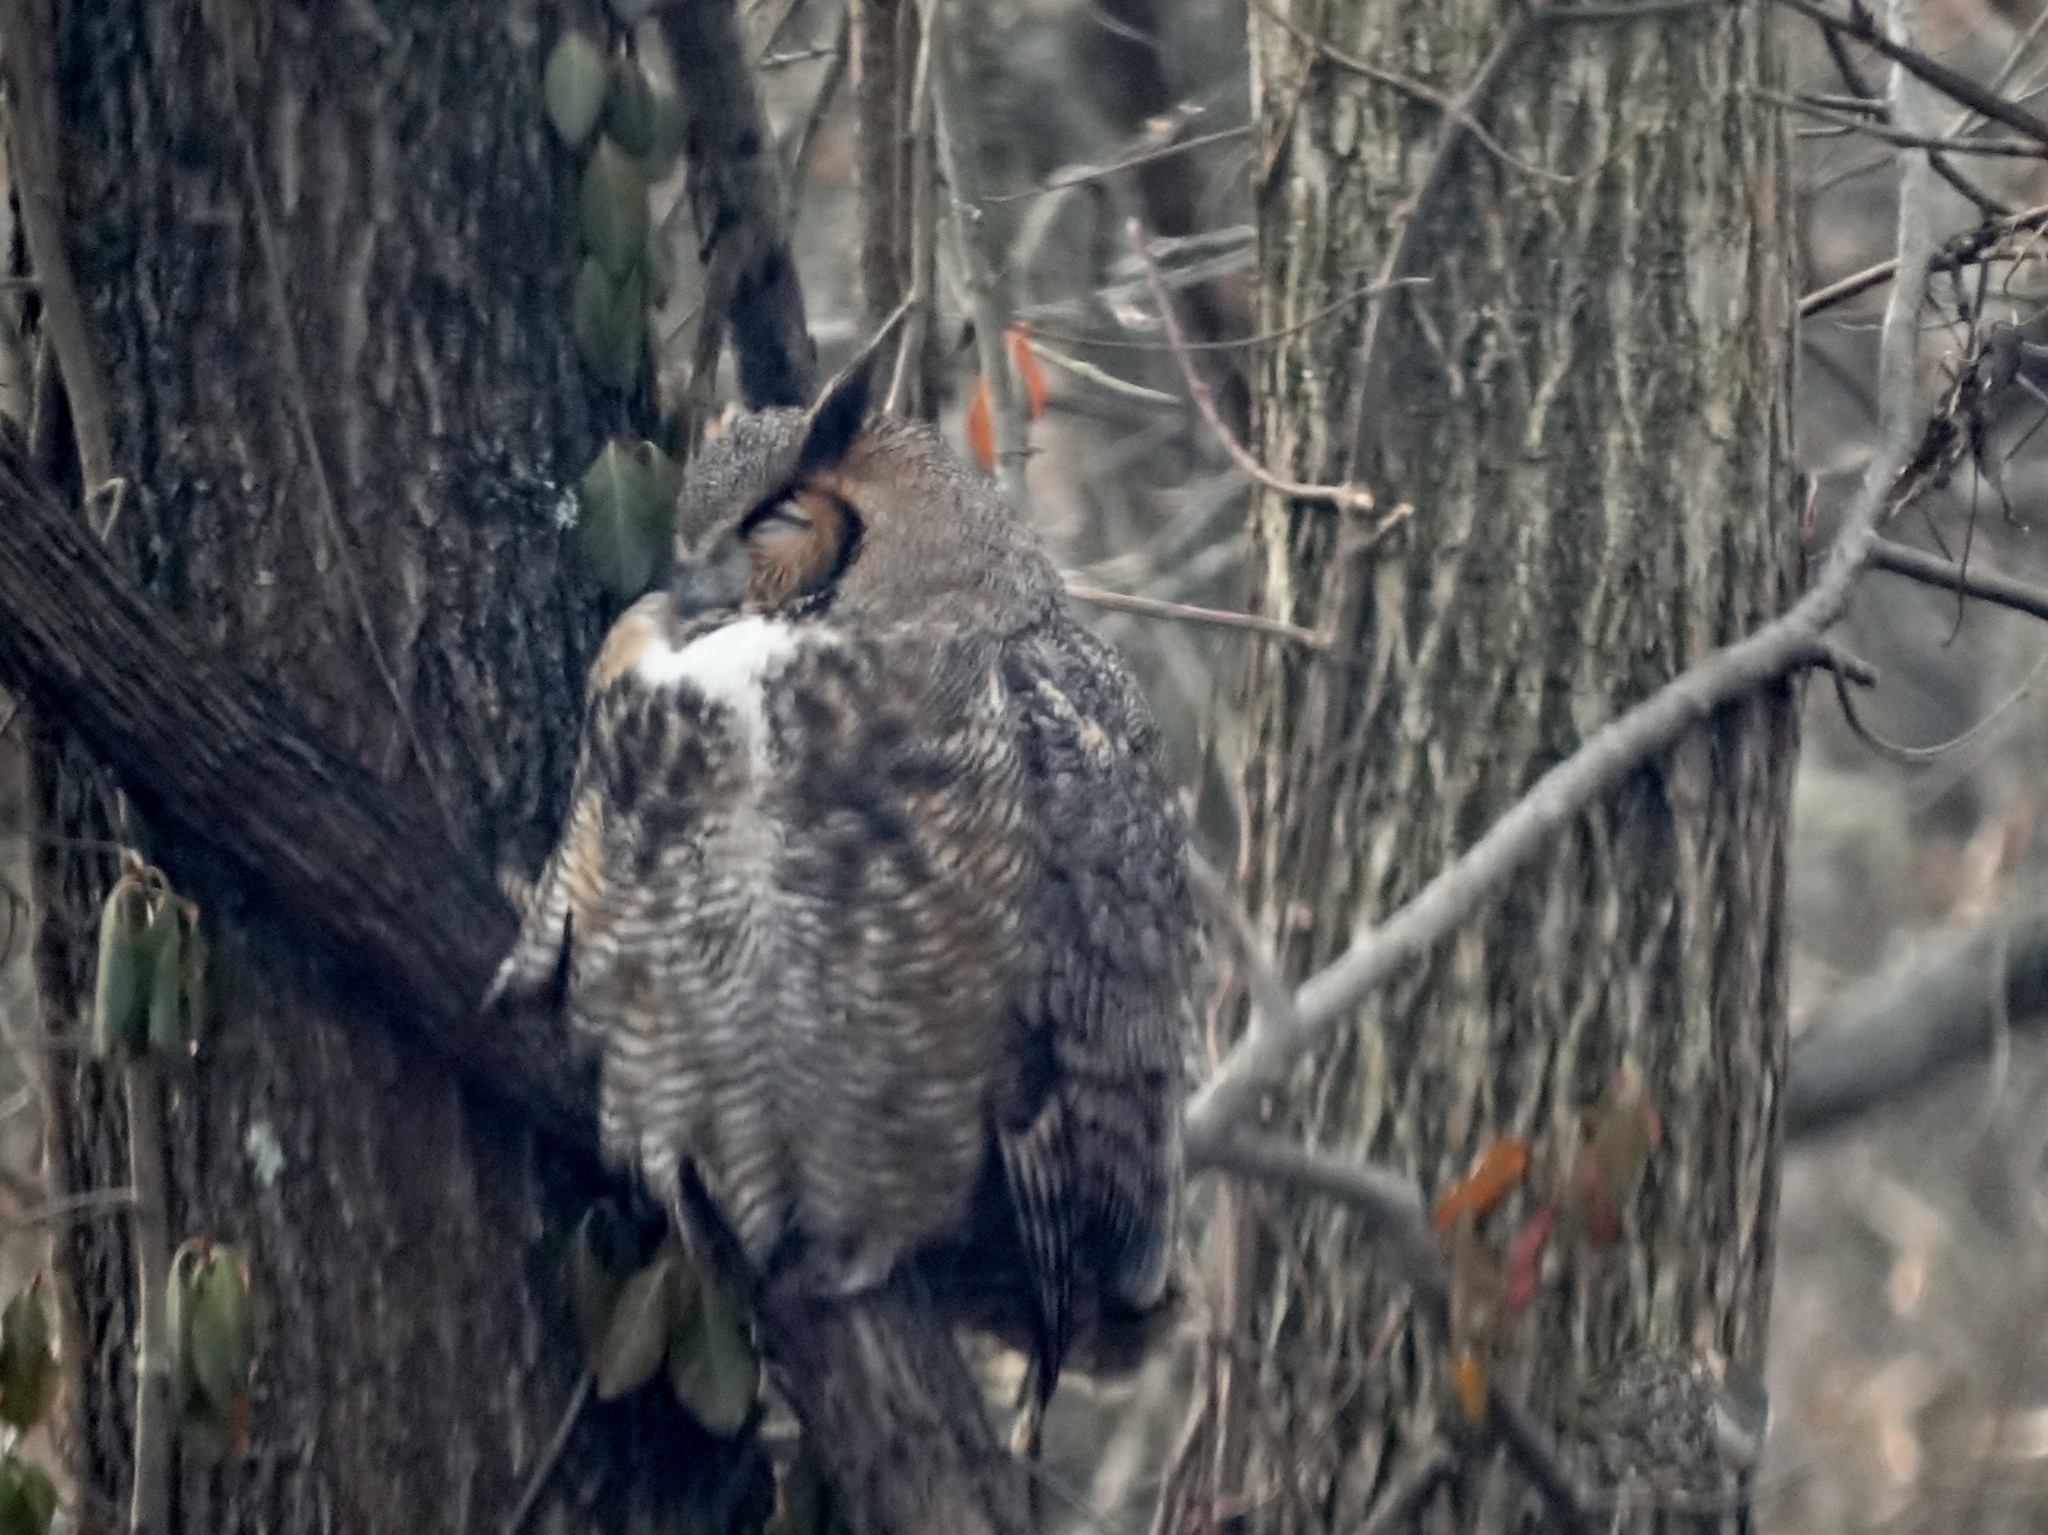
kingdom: Animalia
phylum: Chordata
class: Aves
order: Strigiformes
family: Strigidae
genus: Bubo
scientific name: Bubo virginianus
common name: Great horned owl
